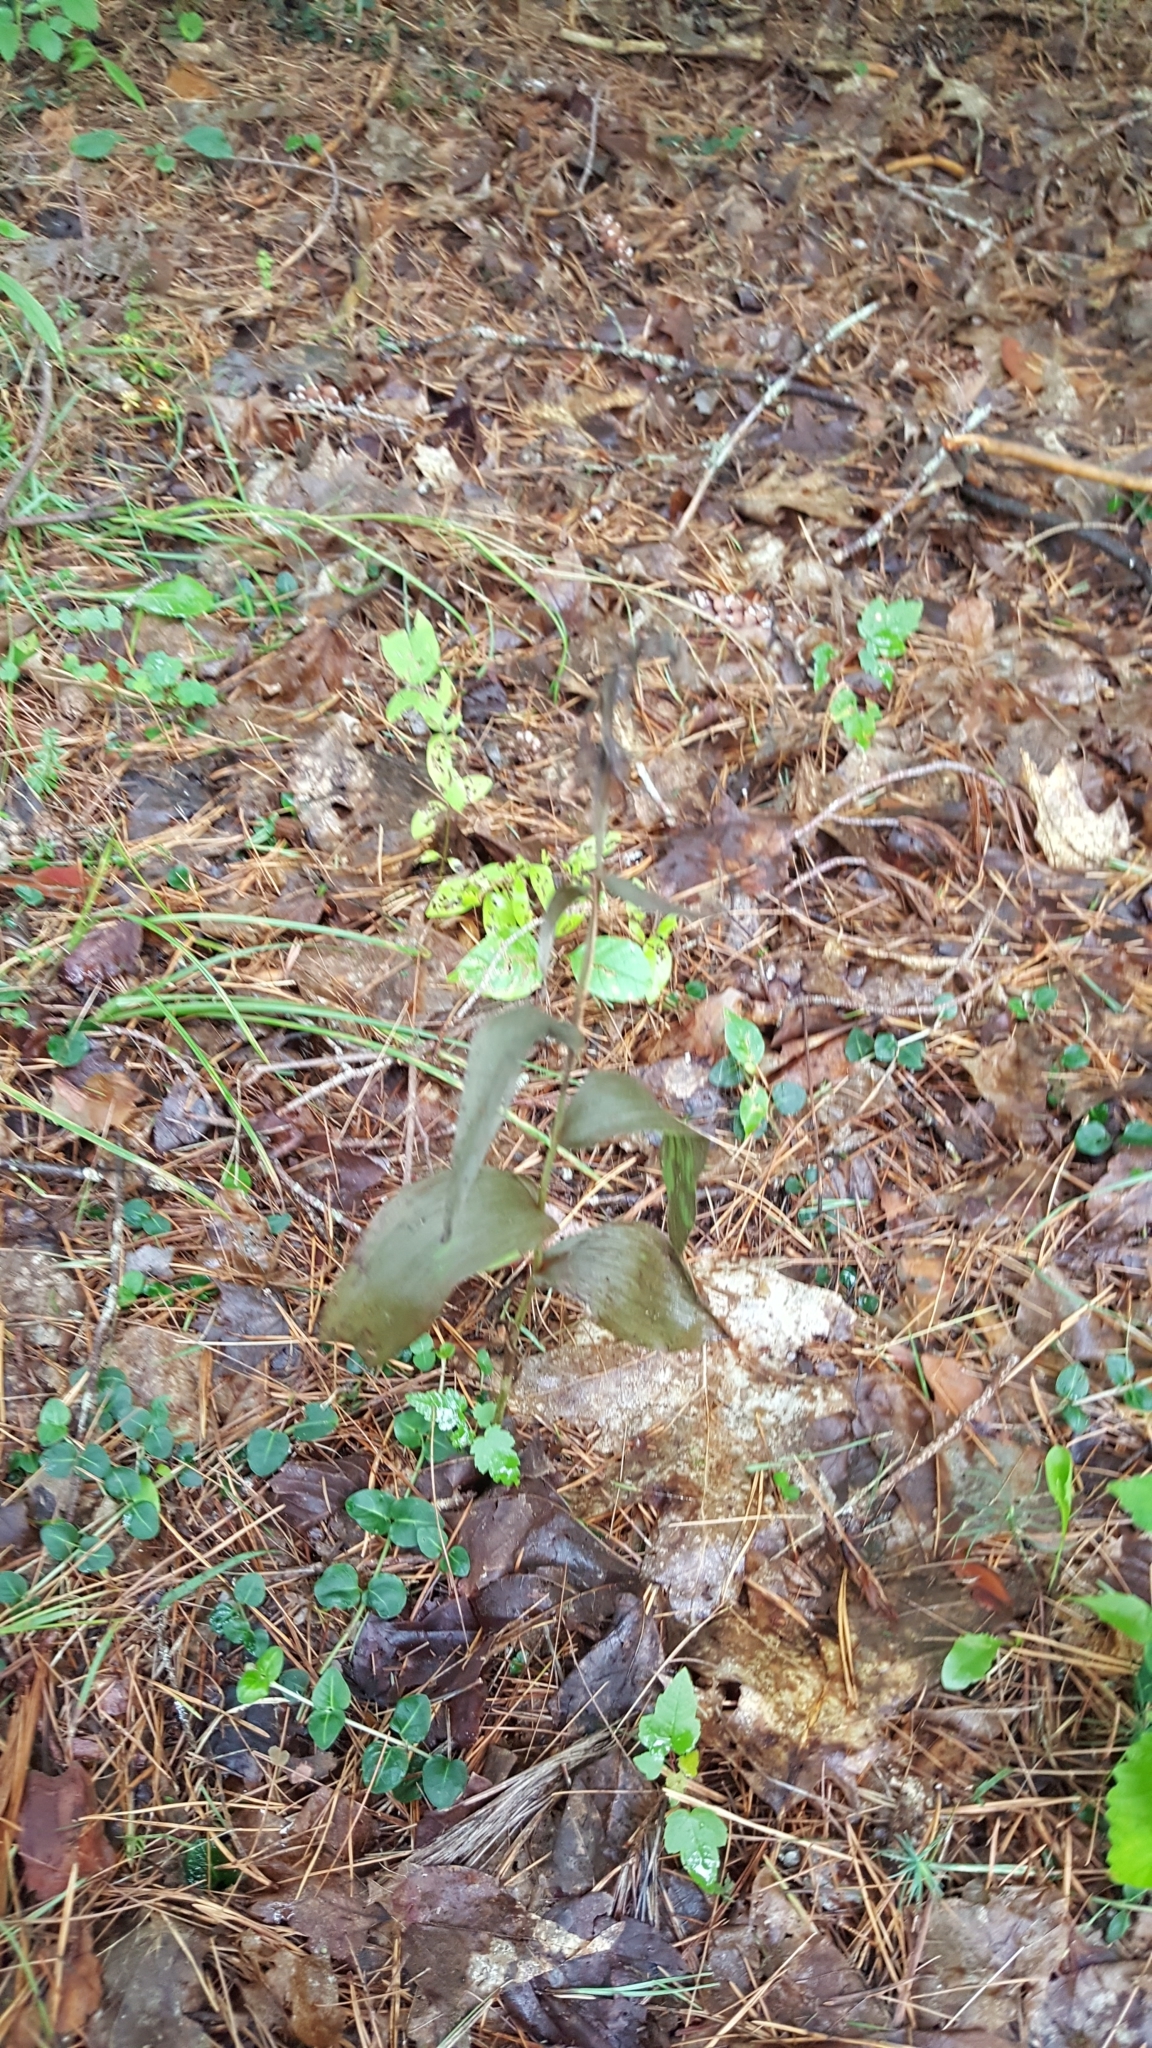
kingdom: Plantae
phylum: Tracheophyta
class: Liliopsida
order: Asparagales
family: Orchidaceae
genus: Epipactis
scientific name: Epipactis helleborine
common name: Broad-leaved helleborine
